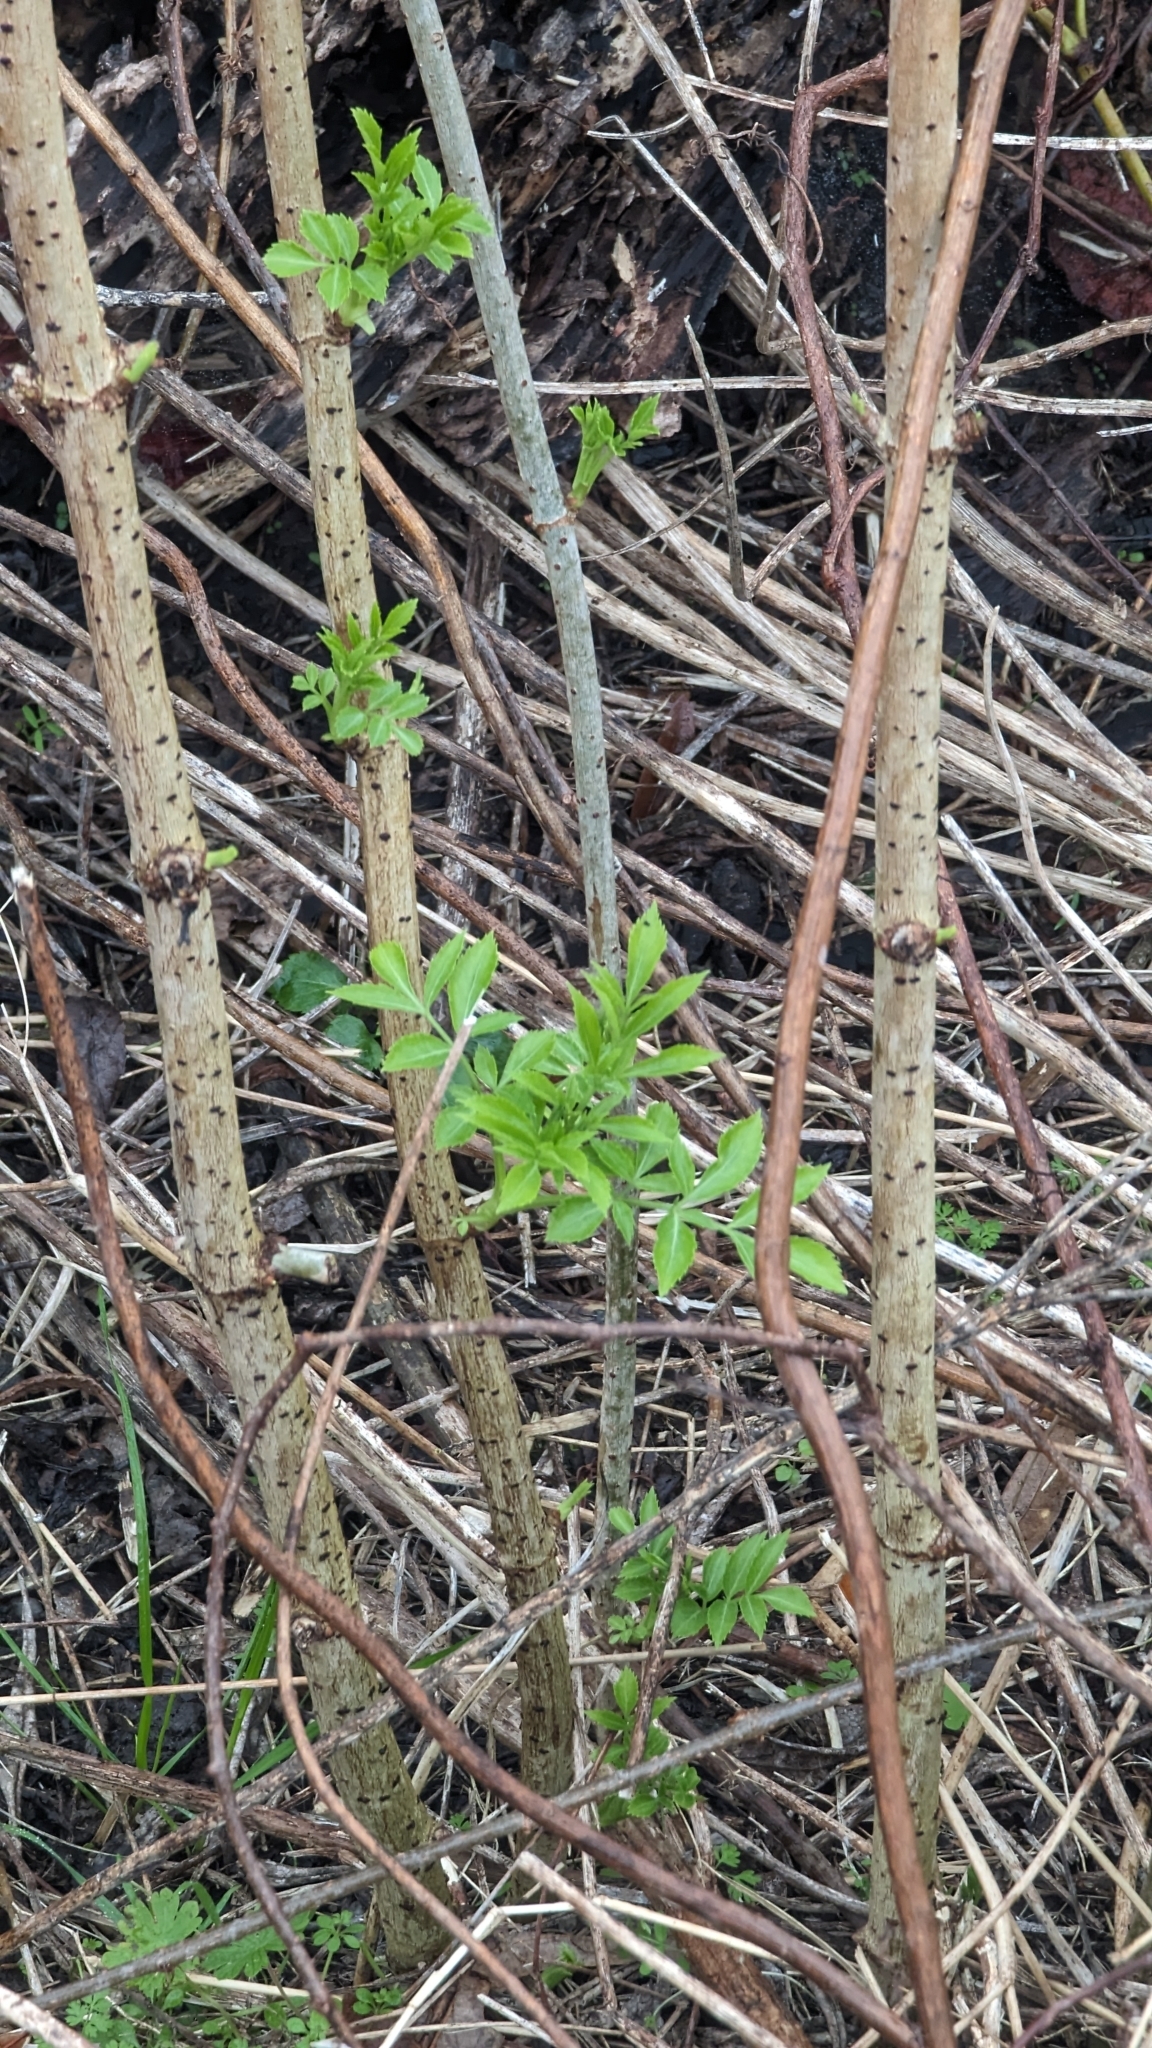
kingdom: Plantae
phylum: Tracheophyta
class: Magnoliopsida
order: Dipsacales
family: Viburnaceae
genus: Sambucus
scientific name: Sambucus canadensis
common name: American elder
